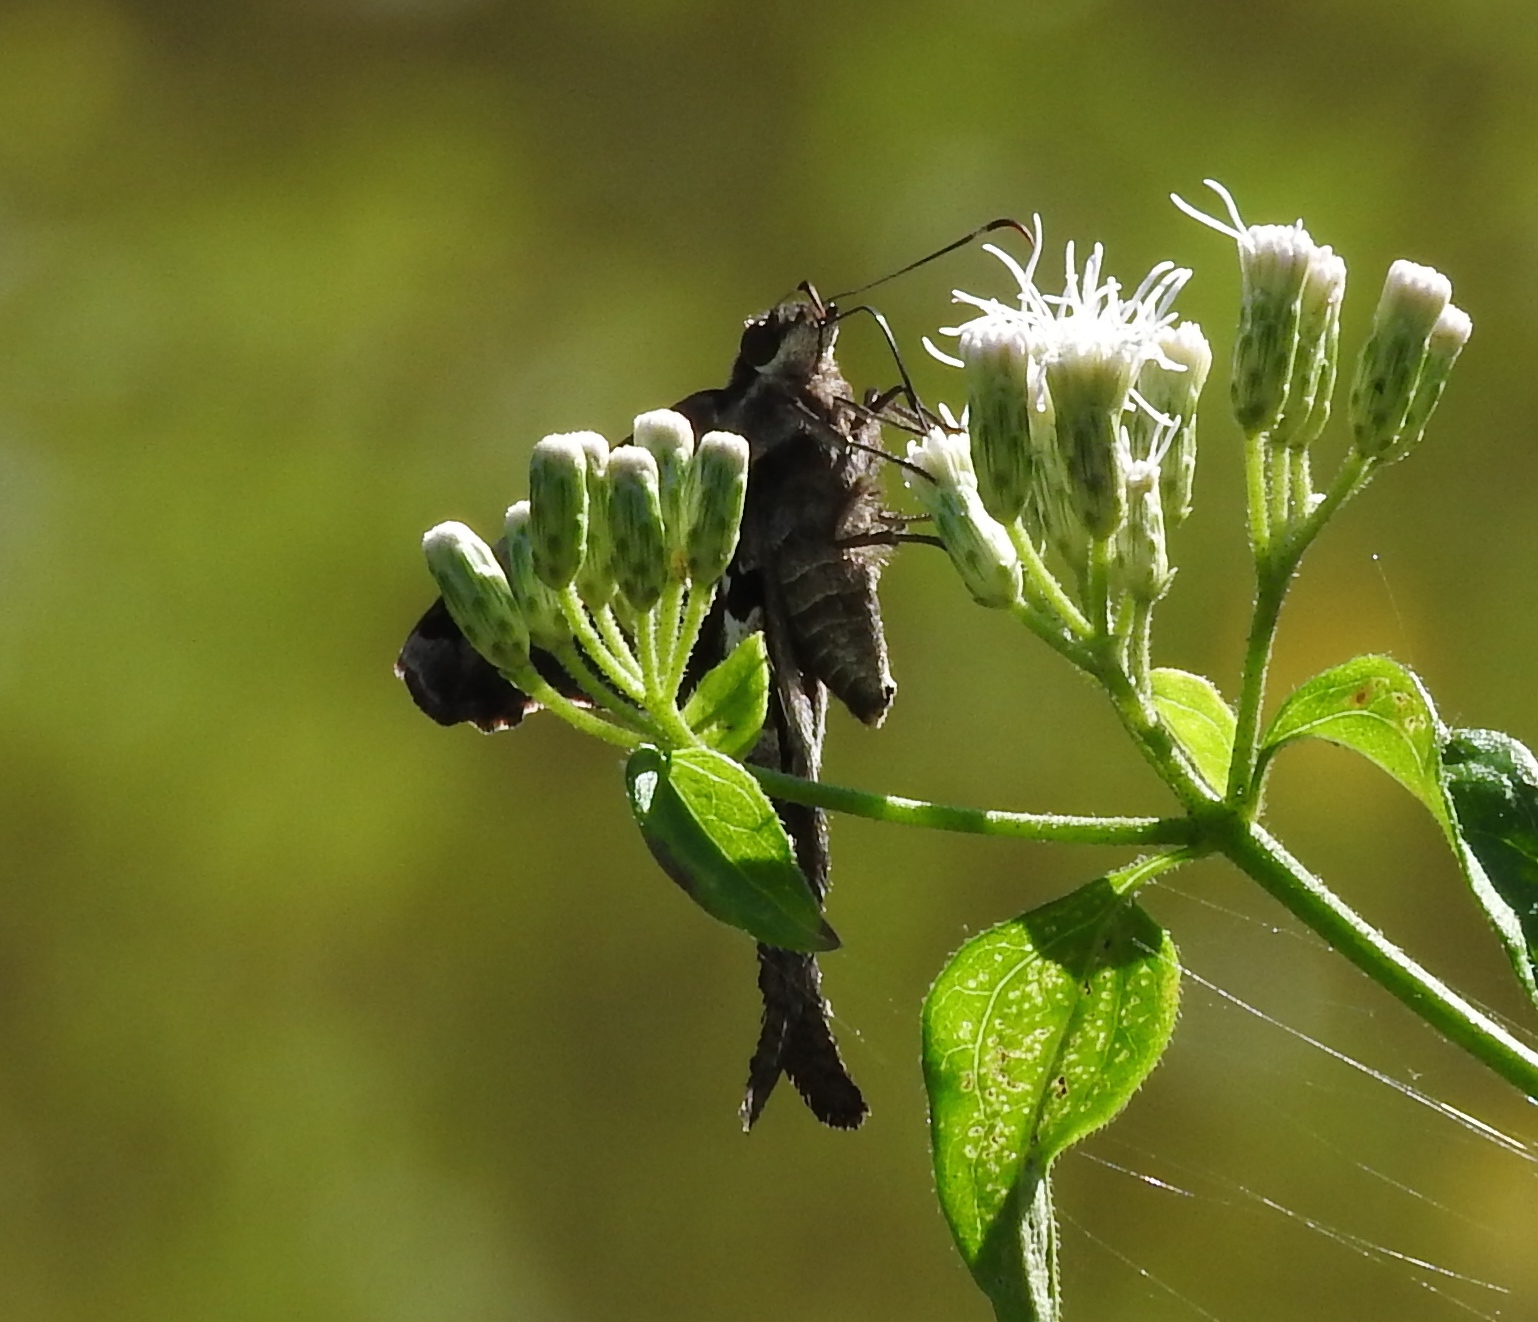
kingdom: Animalia
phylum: Arthropoda
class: Insecta
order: Lepidoptera
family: Hesperiidae
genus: Chioides
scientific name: Chioides zilpa
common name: Zilpa longtail
